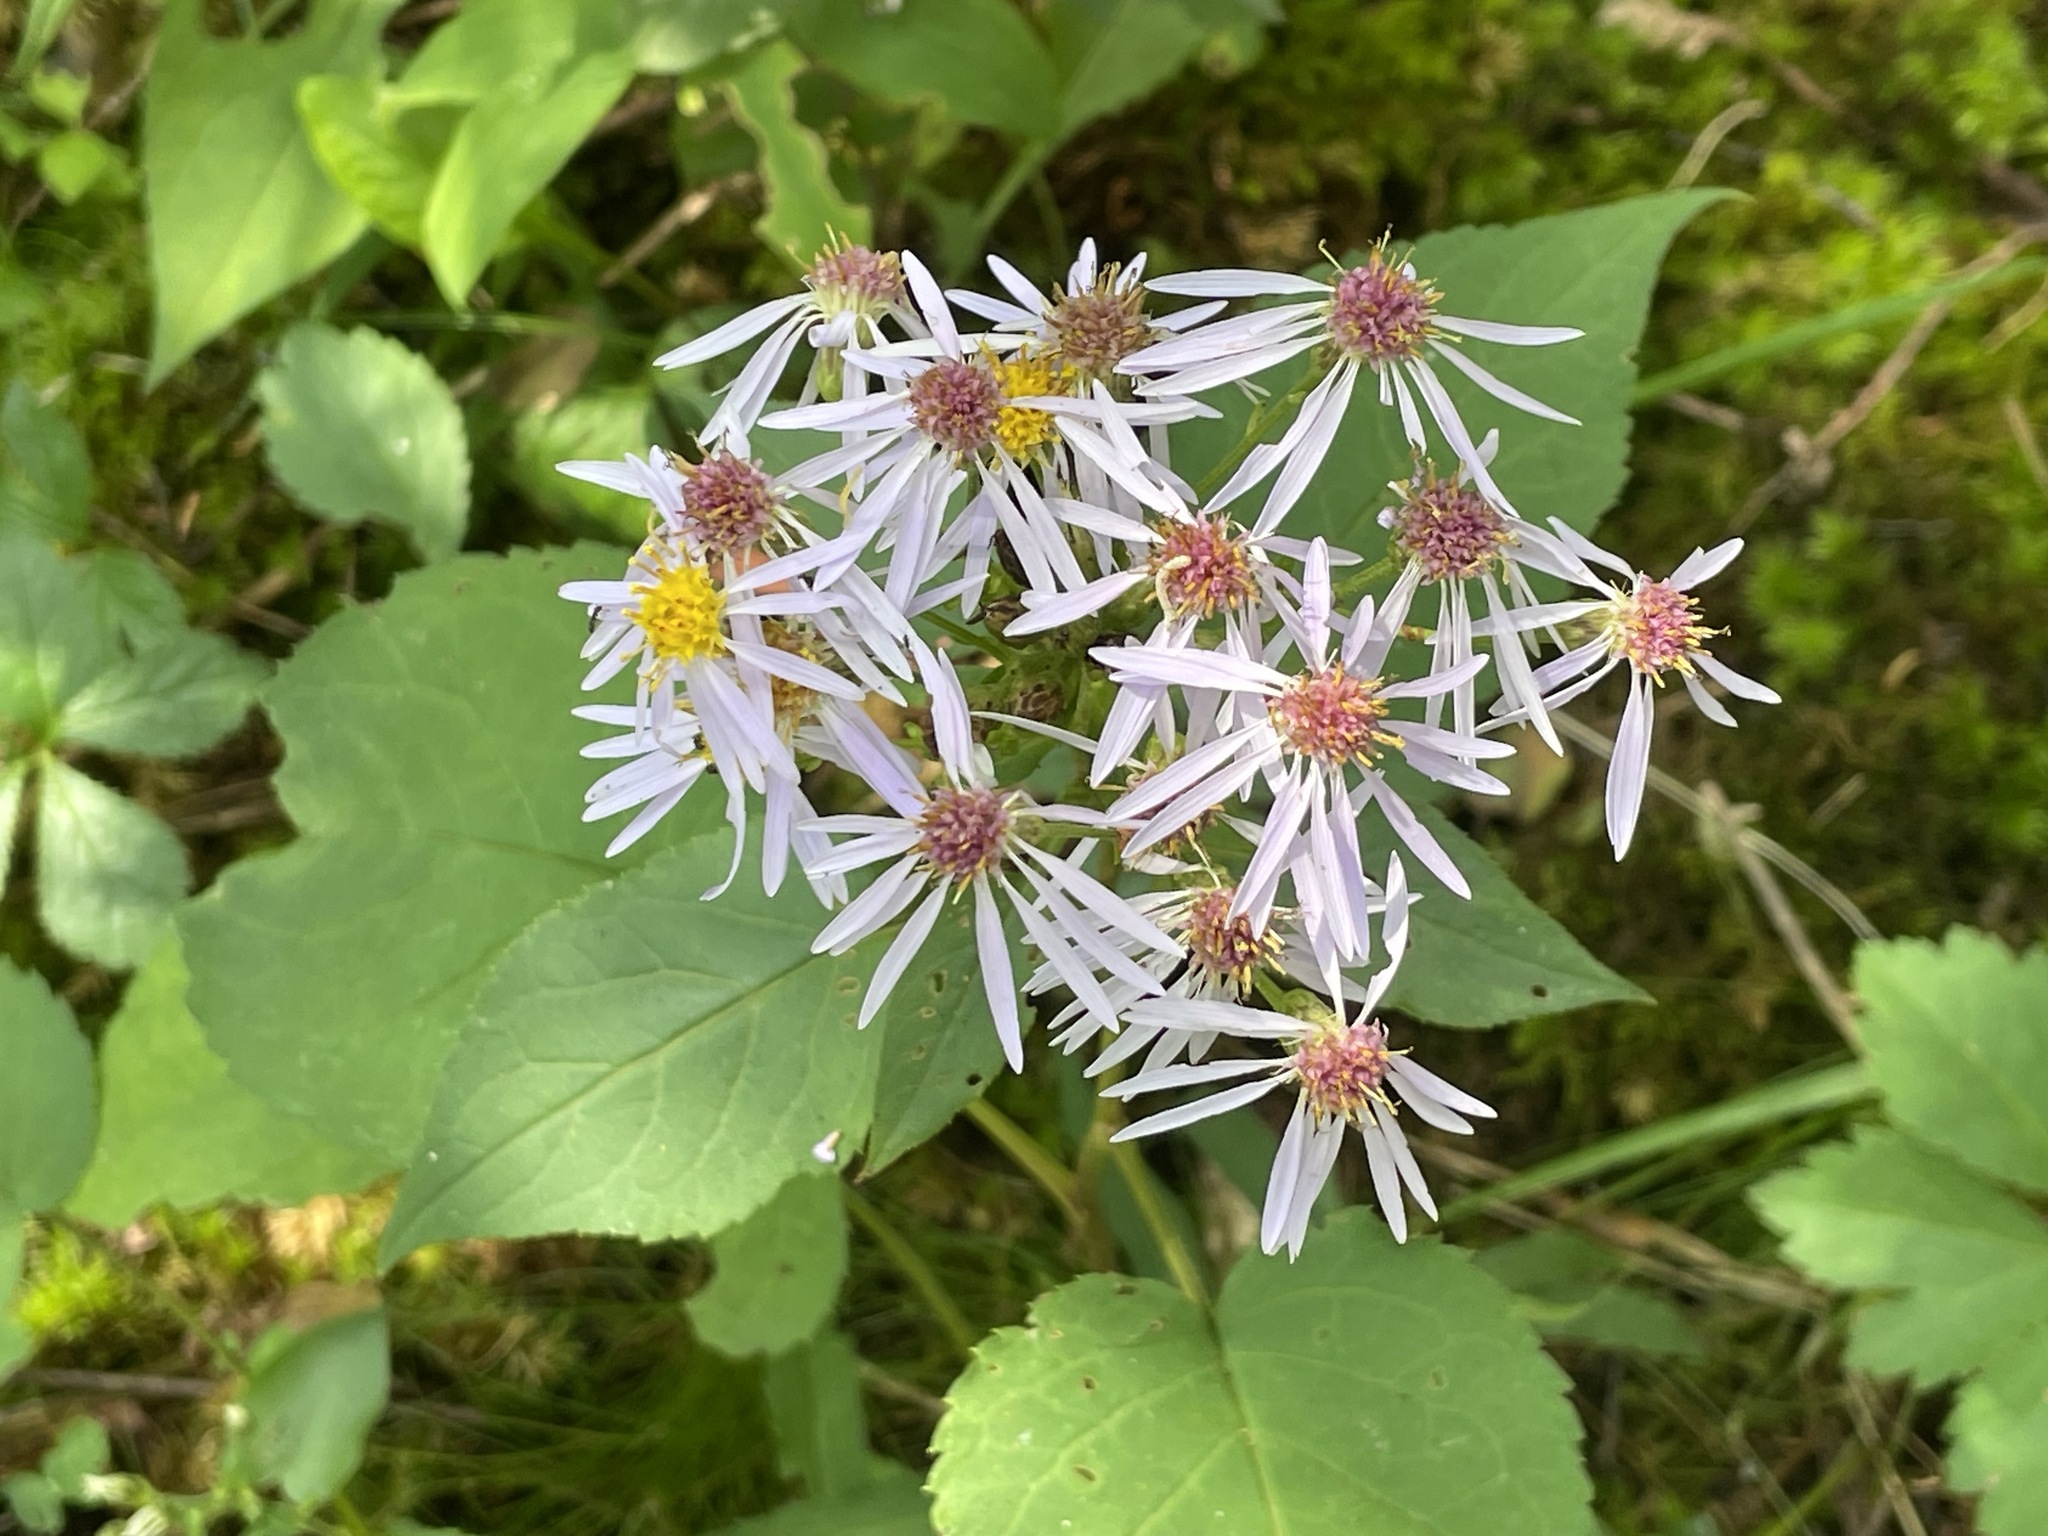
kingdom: Plantae
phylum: Tracheophyta
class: Magnoliopsida
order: Asterales
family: Asteraceae
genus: Eurybia
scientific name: Eurybia macrophylla
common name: Big-leaved aster
